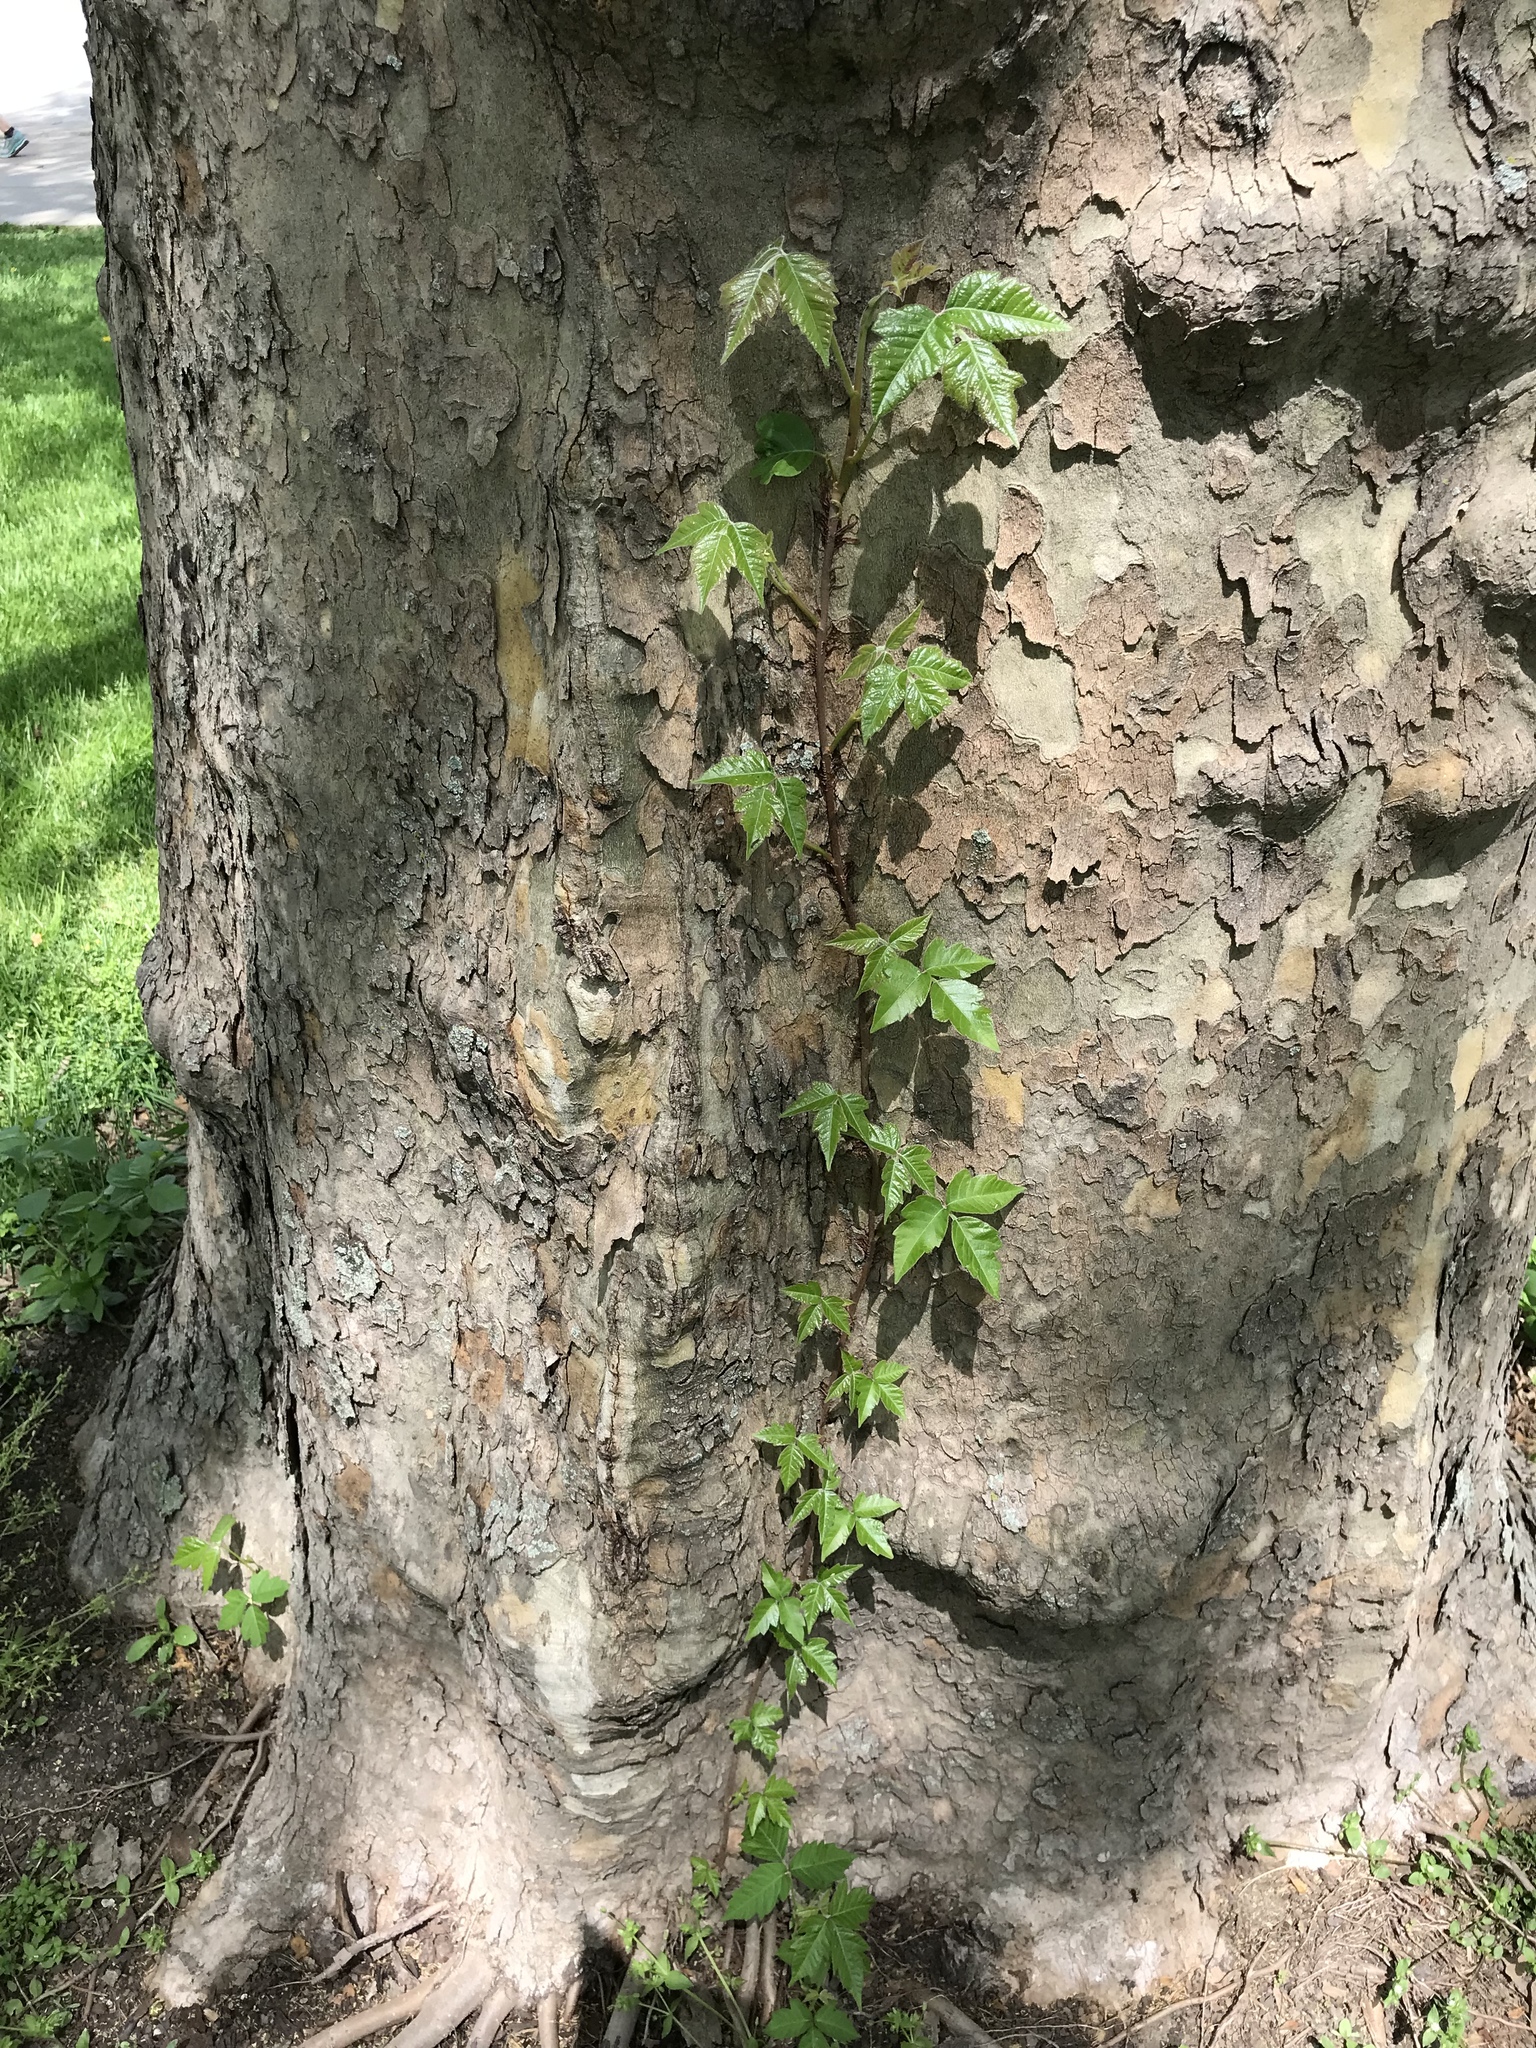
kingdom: Plantae
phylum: Tracheophyta
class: Magnoliopsida
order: Sapindales
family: Anacardiaceae
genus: Toxicodendron
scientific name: Toxicodendron radicans
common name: Poison ivy
